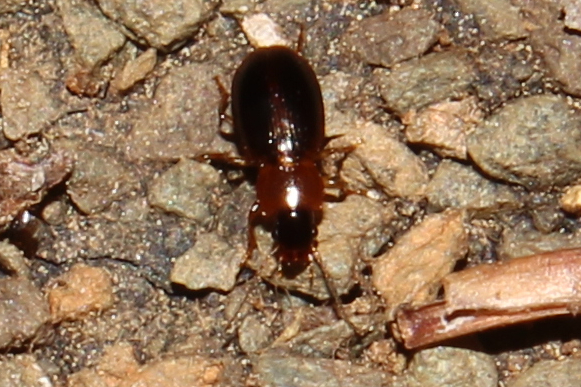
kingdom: Animalia
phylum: Arthropoda
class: Insecta
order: Coleoptera
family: Carabidae
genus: Agonoleptus
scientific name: Agonoleptus
